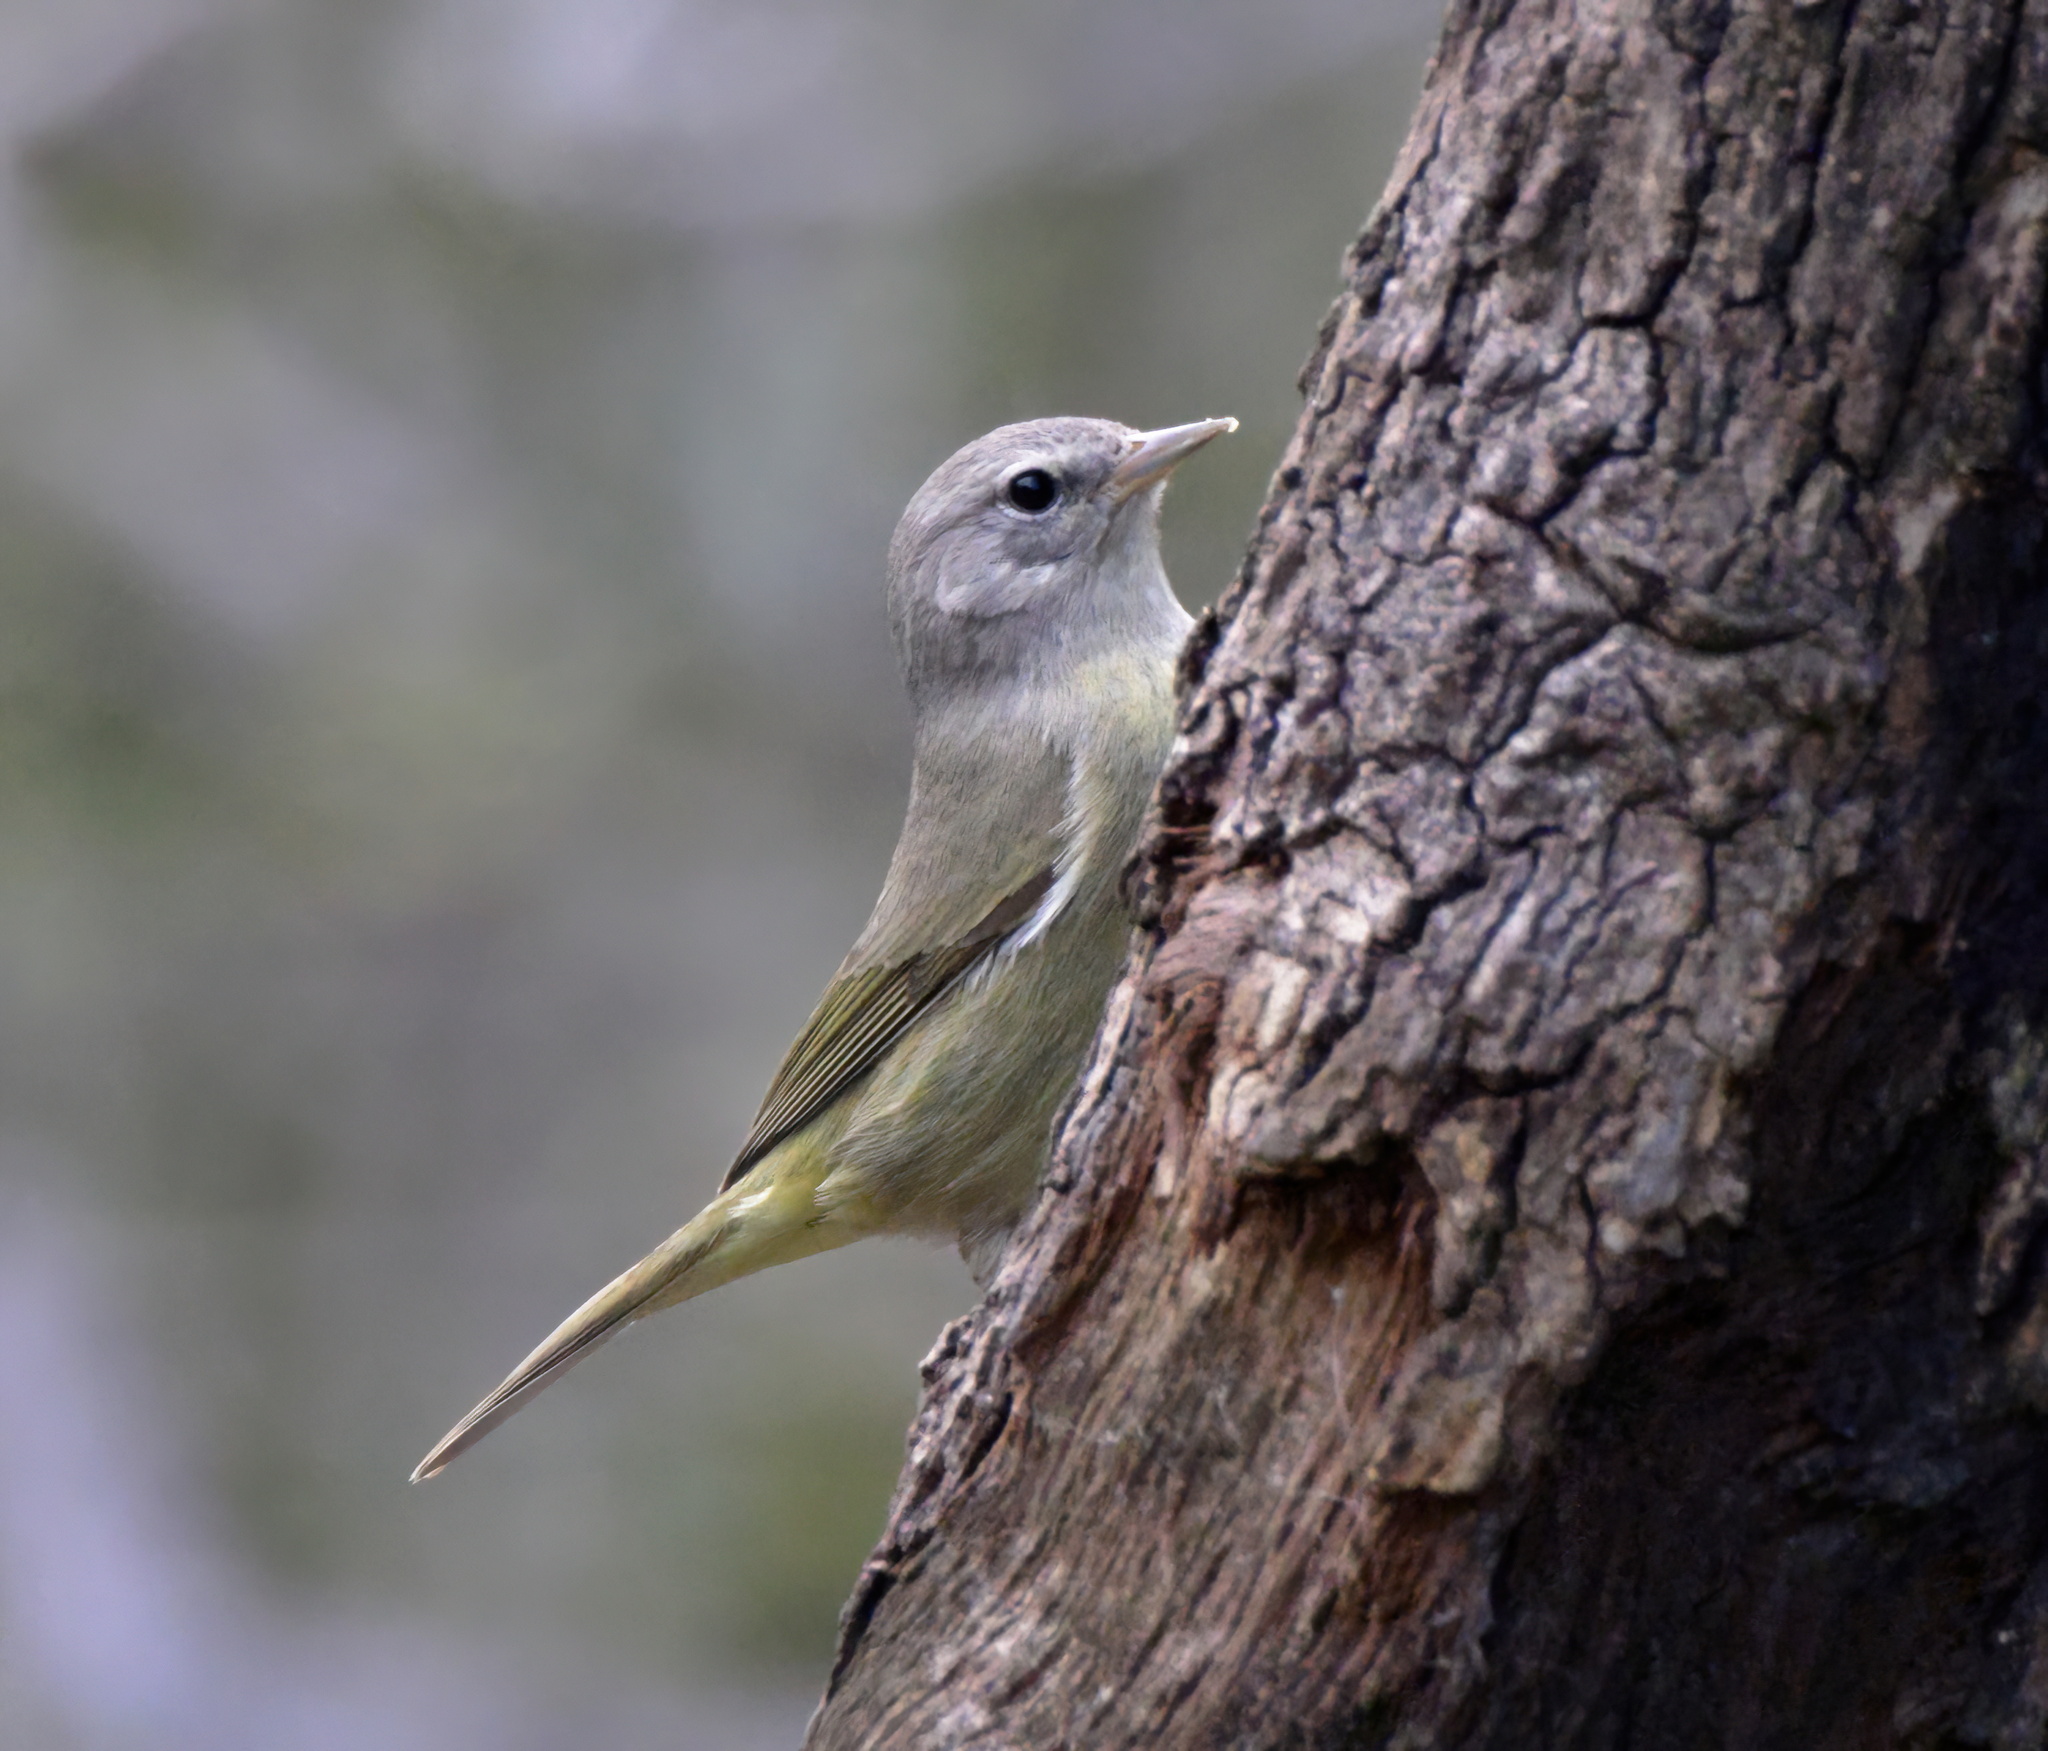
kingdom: Animalia
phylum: Chordata
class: Aves
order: Passeriformes
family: Parulidae
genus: Leiothlypis
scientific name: Leiothlypis celata
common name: Orange-crowned warbler
